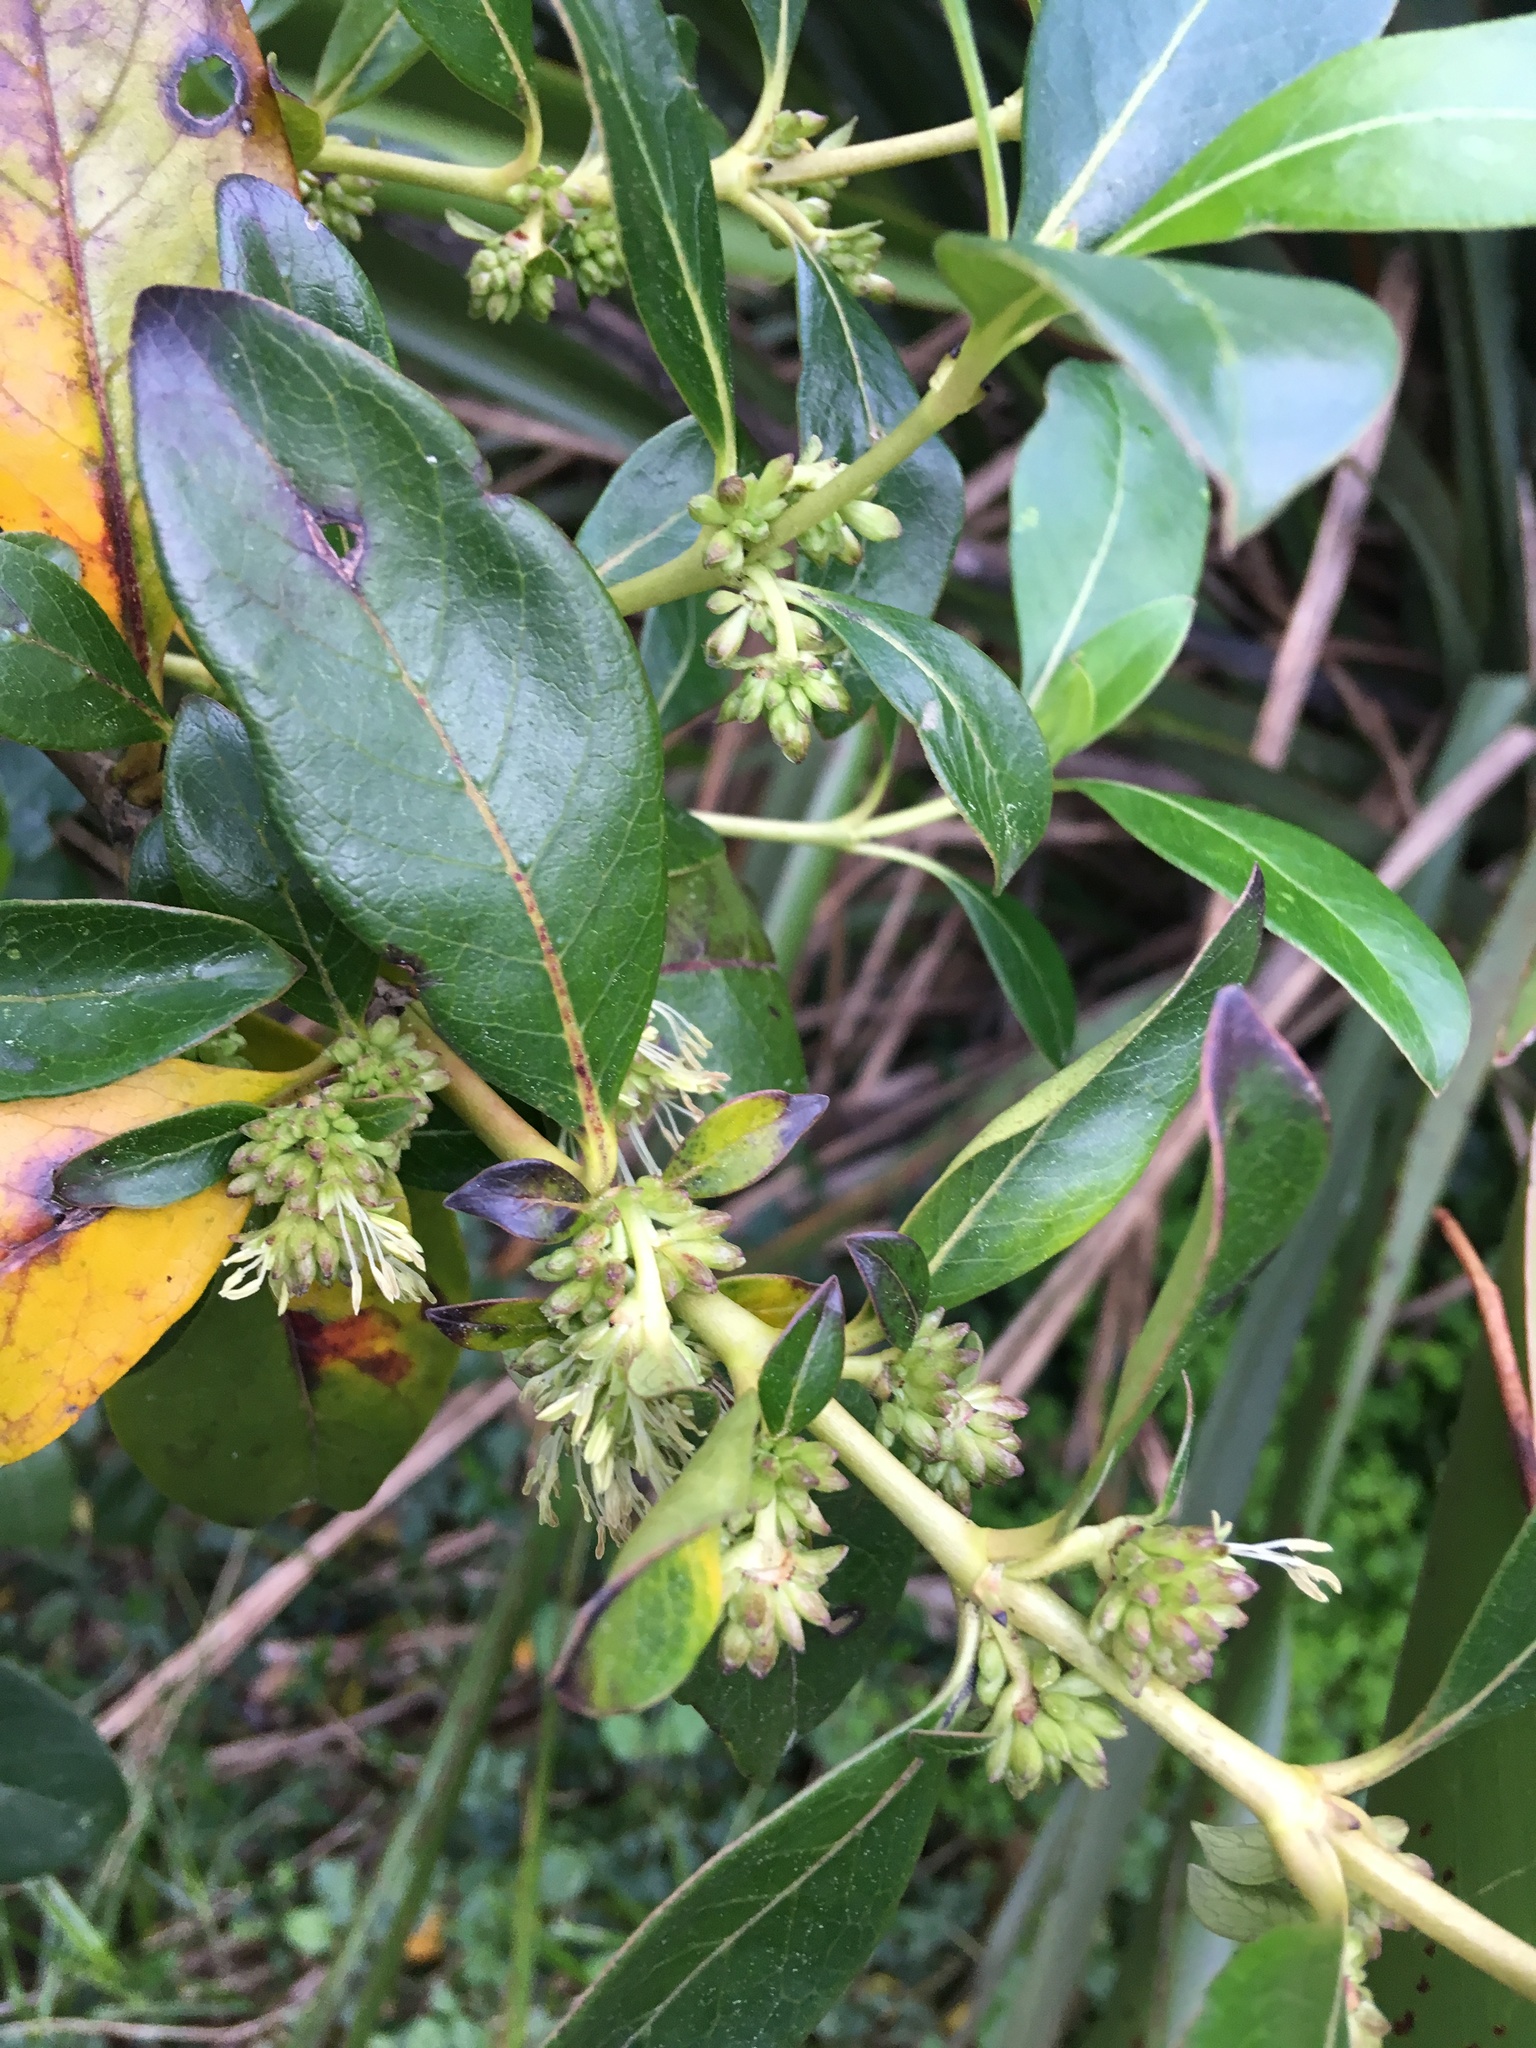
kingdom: Plantae
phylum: Tracheophyta
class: Magnoliopsida
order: Gentianales
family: Rubiaceae
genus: Coprosma
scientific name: Coprosma robusta
